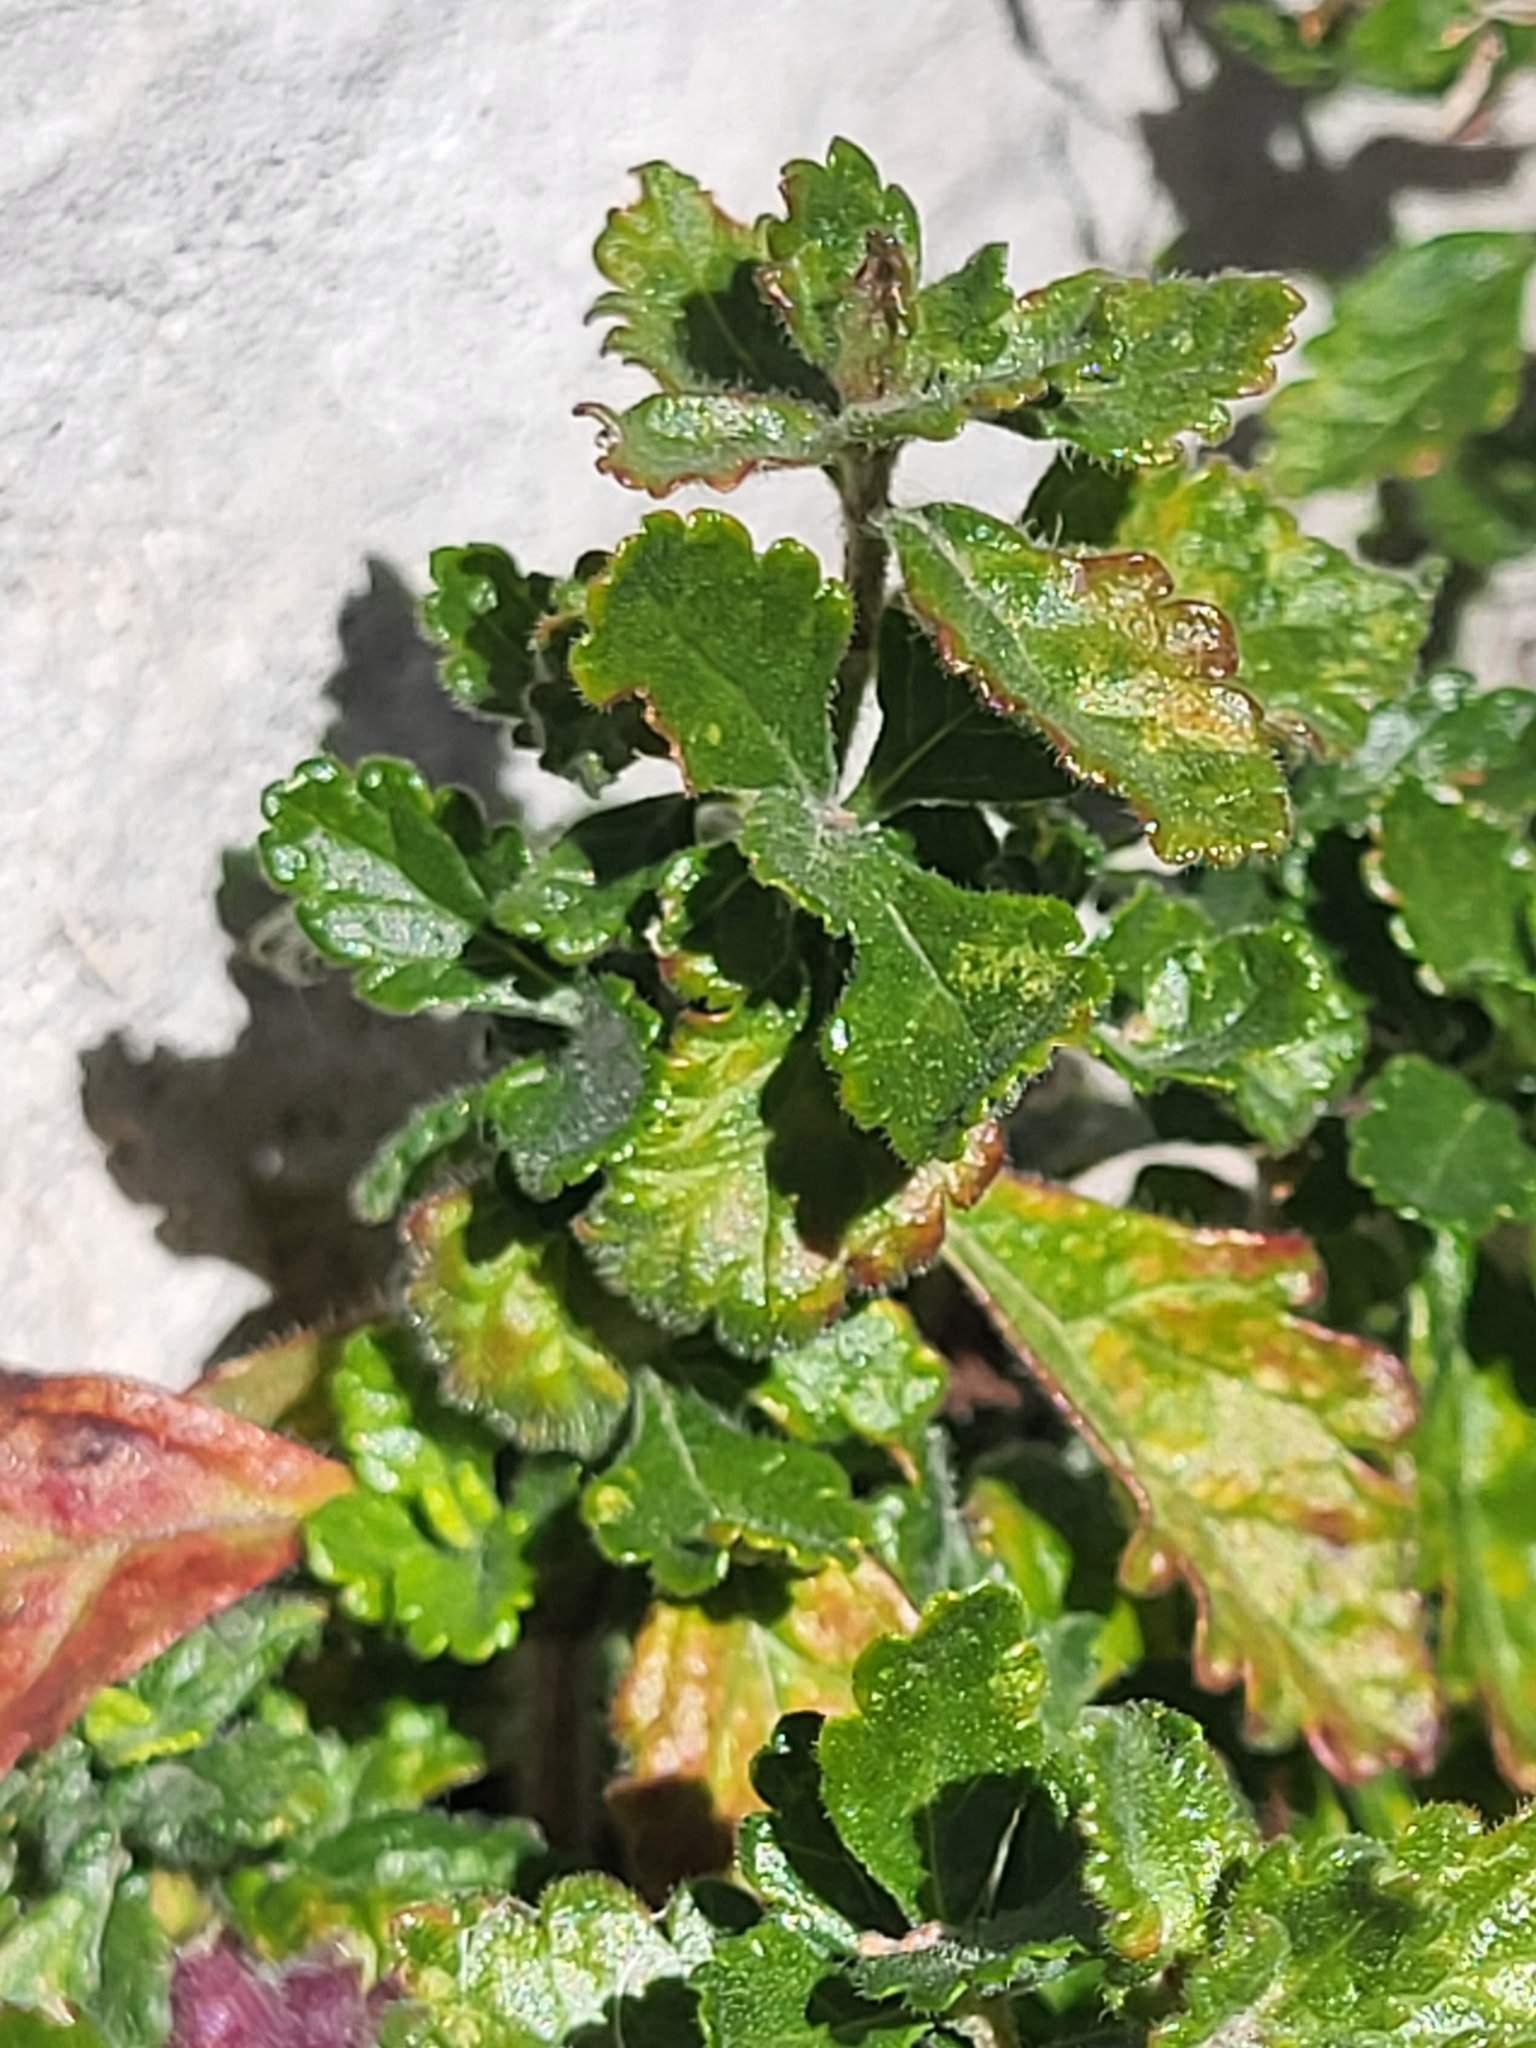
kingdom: Plantae
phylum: Tracheophyta
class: Magnoliopsida
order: Lamiales
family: Lamiaceae
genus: Teucrium
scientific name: Teucrium chamaedrys
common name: Wall germander
